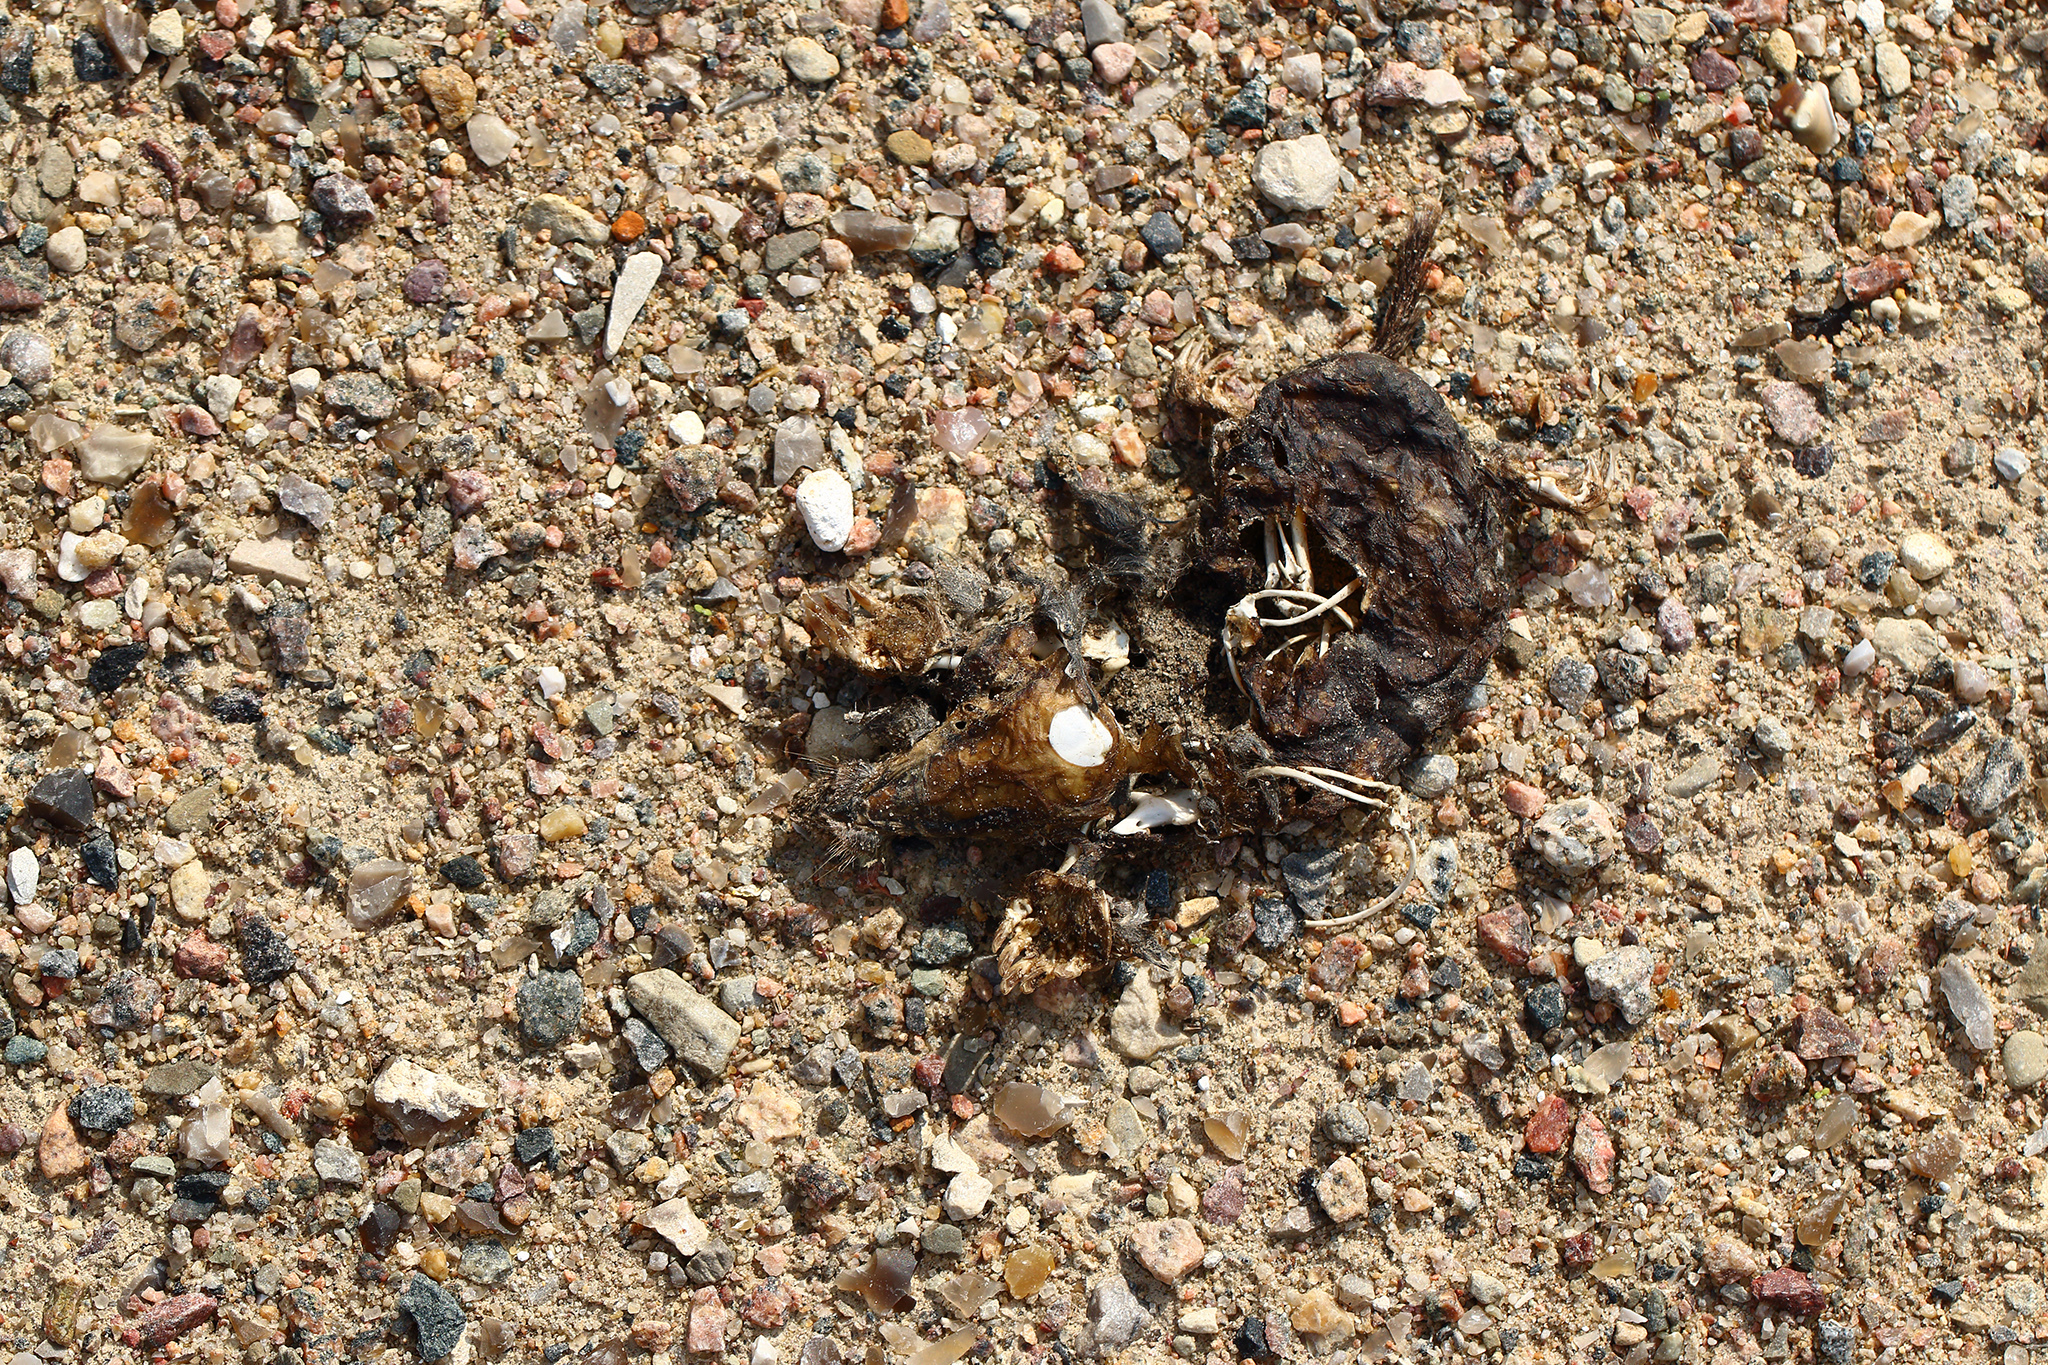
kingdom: Animalia
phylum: Chordata
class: Mammalia
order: Soricomorpha
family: Talpidae
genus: Talpa
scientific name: Talpa europaea
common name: European mole
